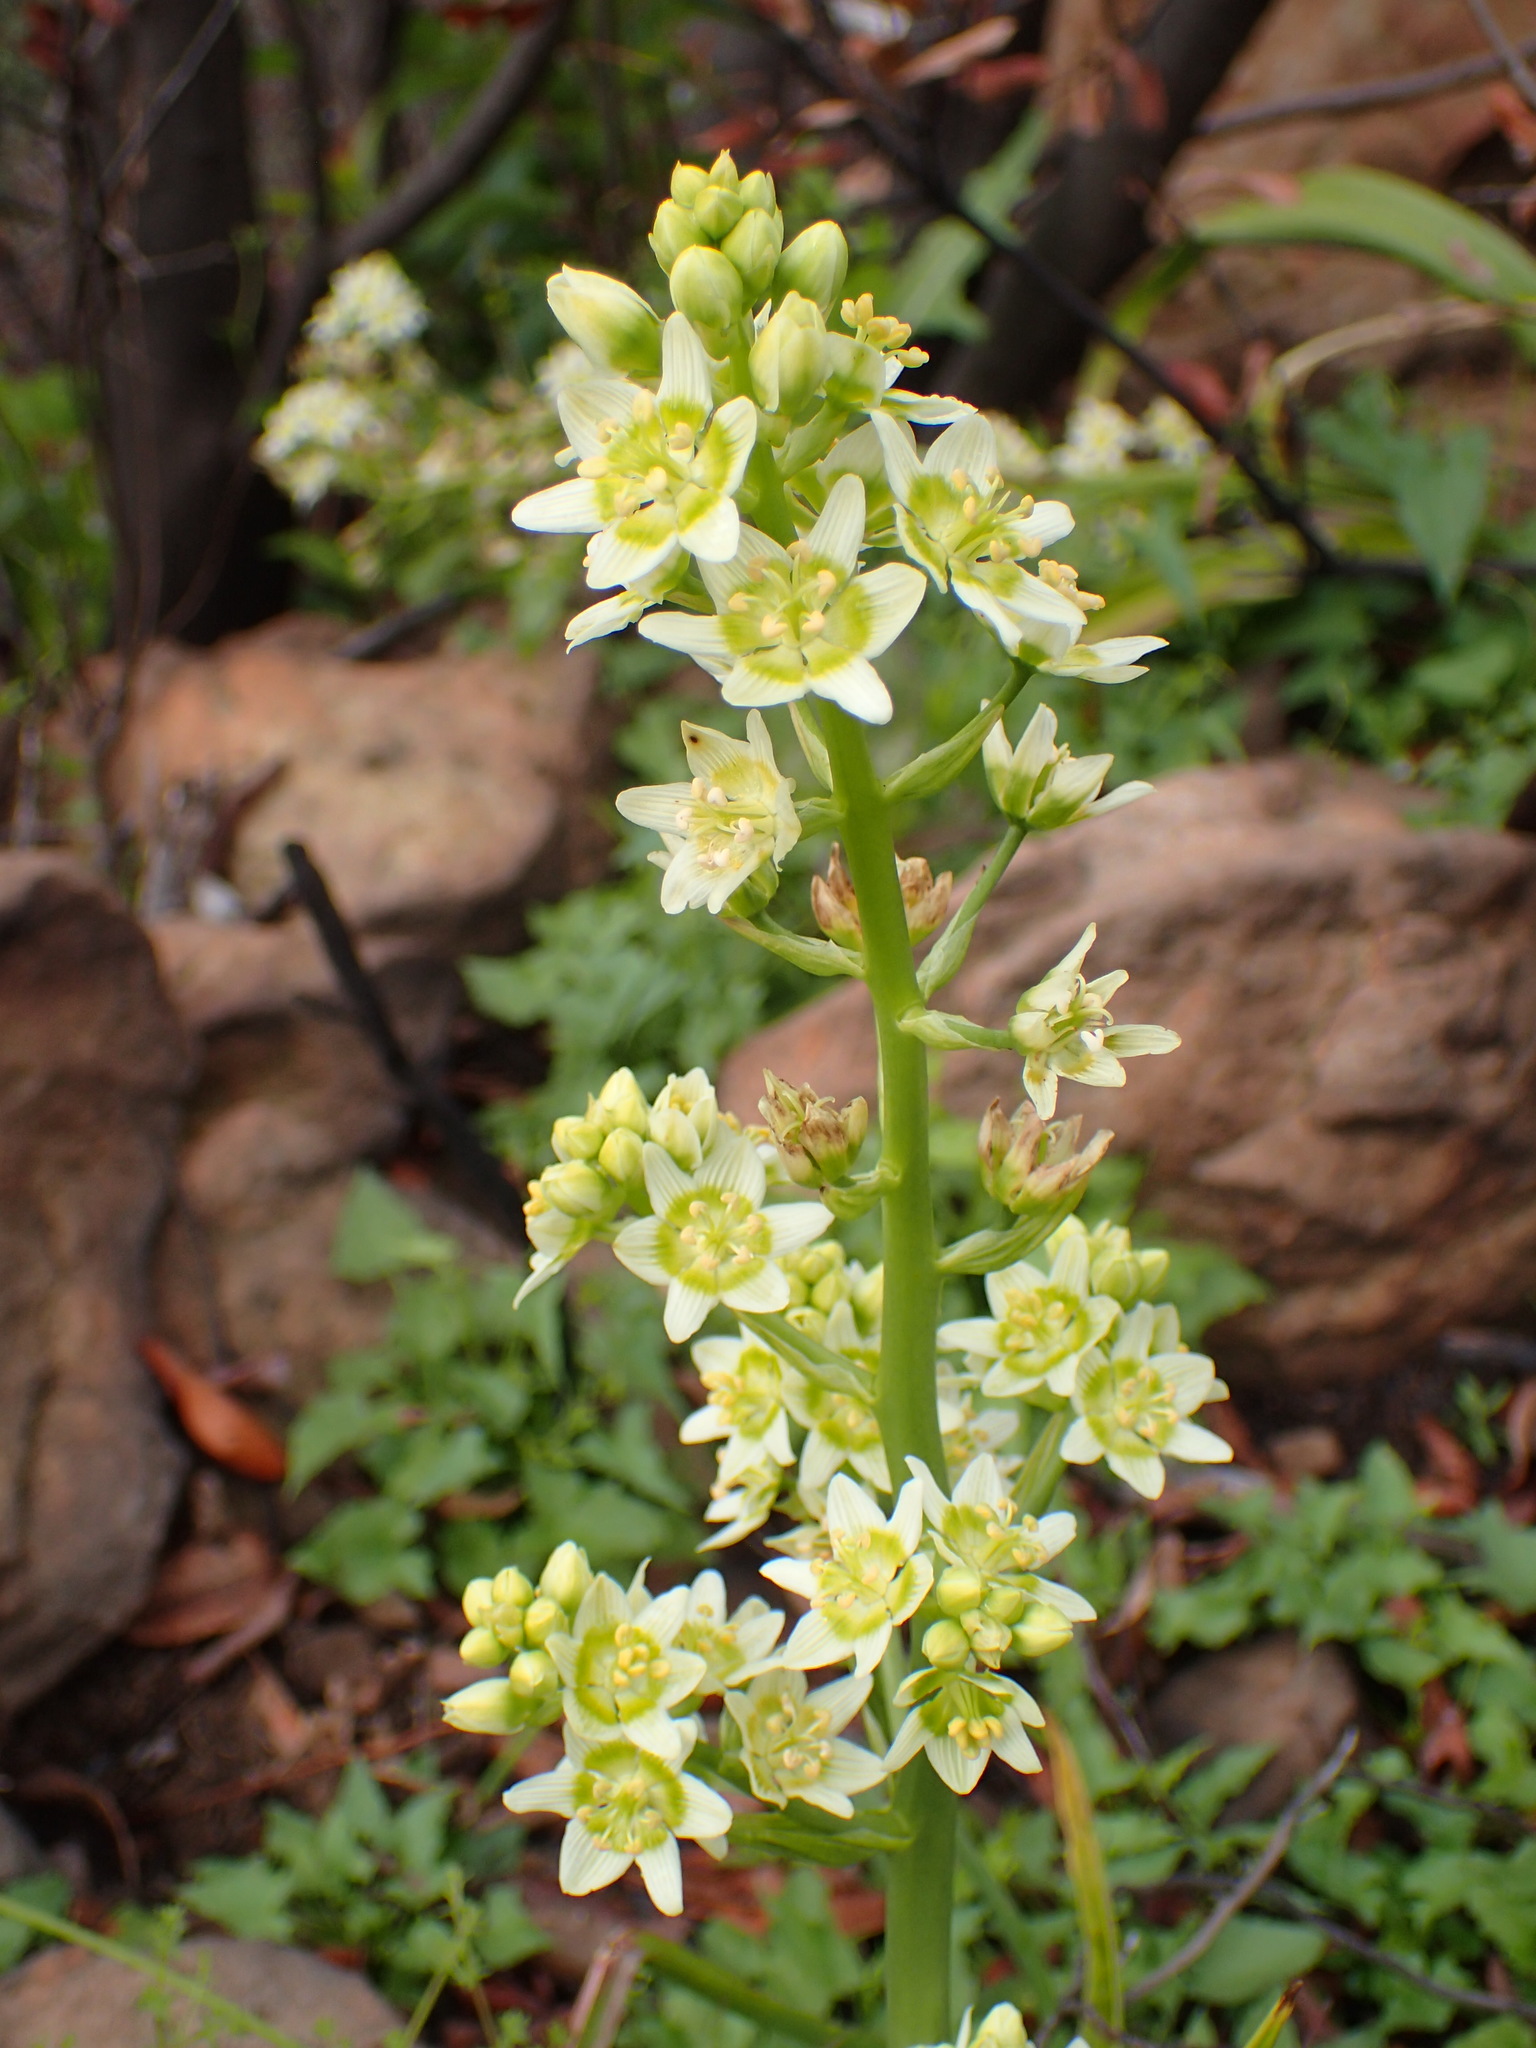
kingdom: Plantae
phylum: Tracheophyta
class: Liliopsida
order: Liliales
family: Melanthiaceae
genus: Toxicoscordion
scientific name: Toxicoscordion fremontii
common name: Fremont's death camas
